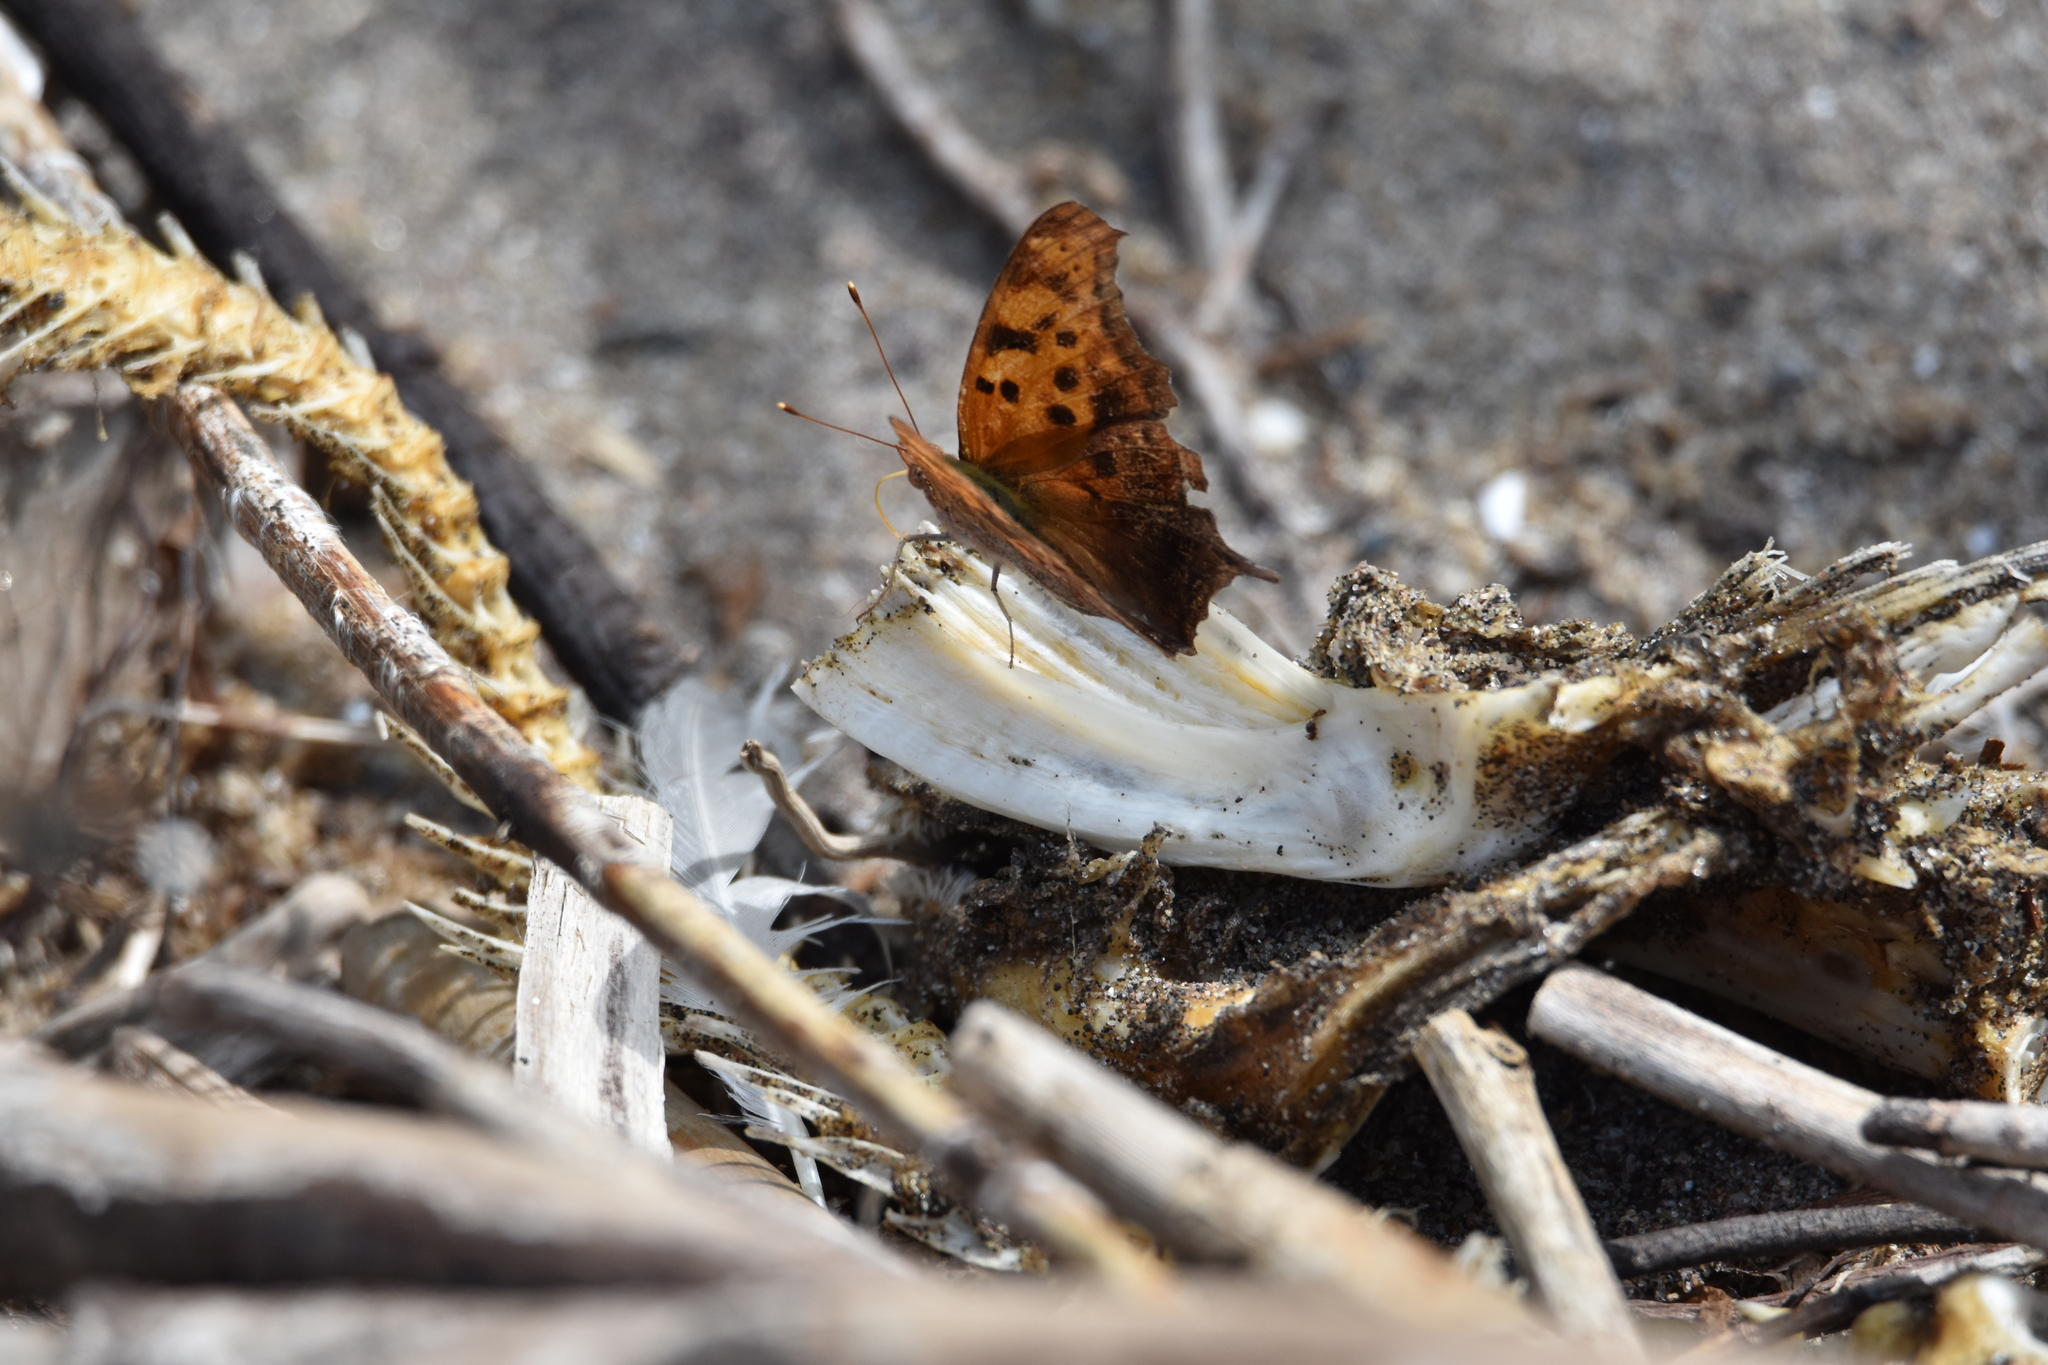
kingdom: Animalia
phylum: Arthropoda
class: Insecta
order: Lepidoptera
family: Nymphalidae
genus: Polygonia
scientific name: Polygonia interrogationis
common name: Question mark
